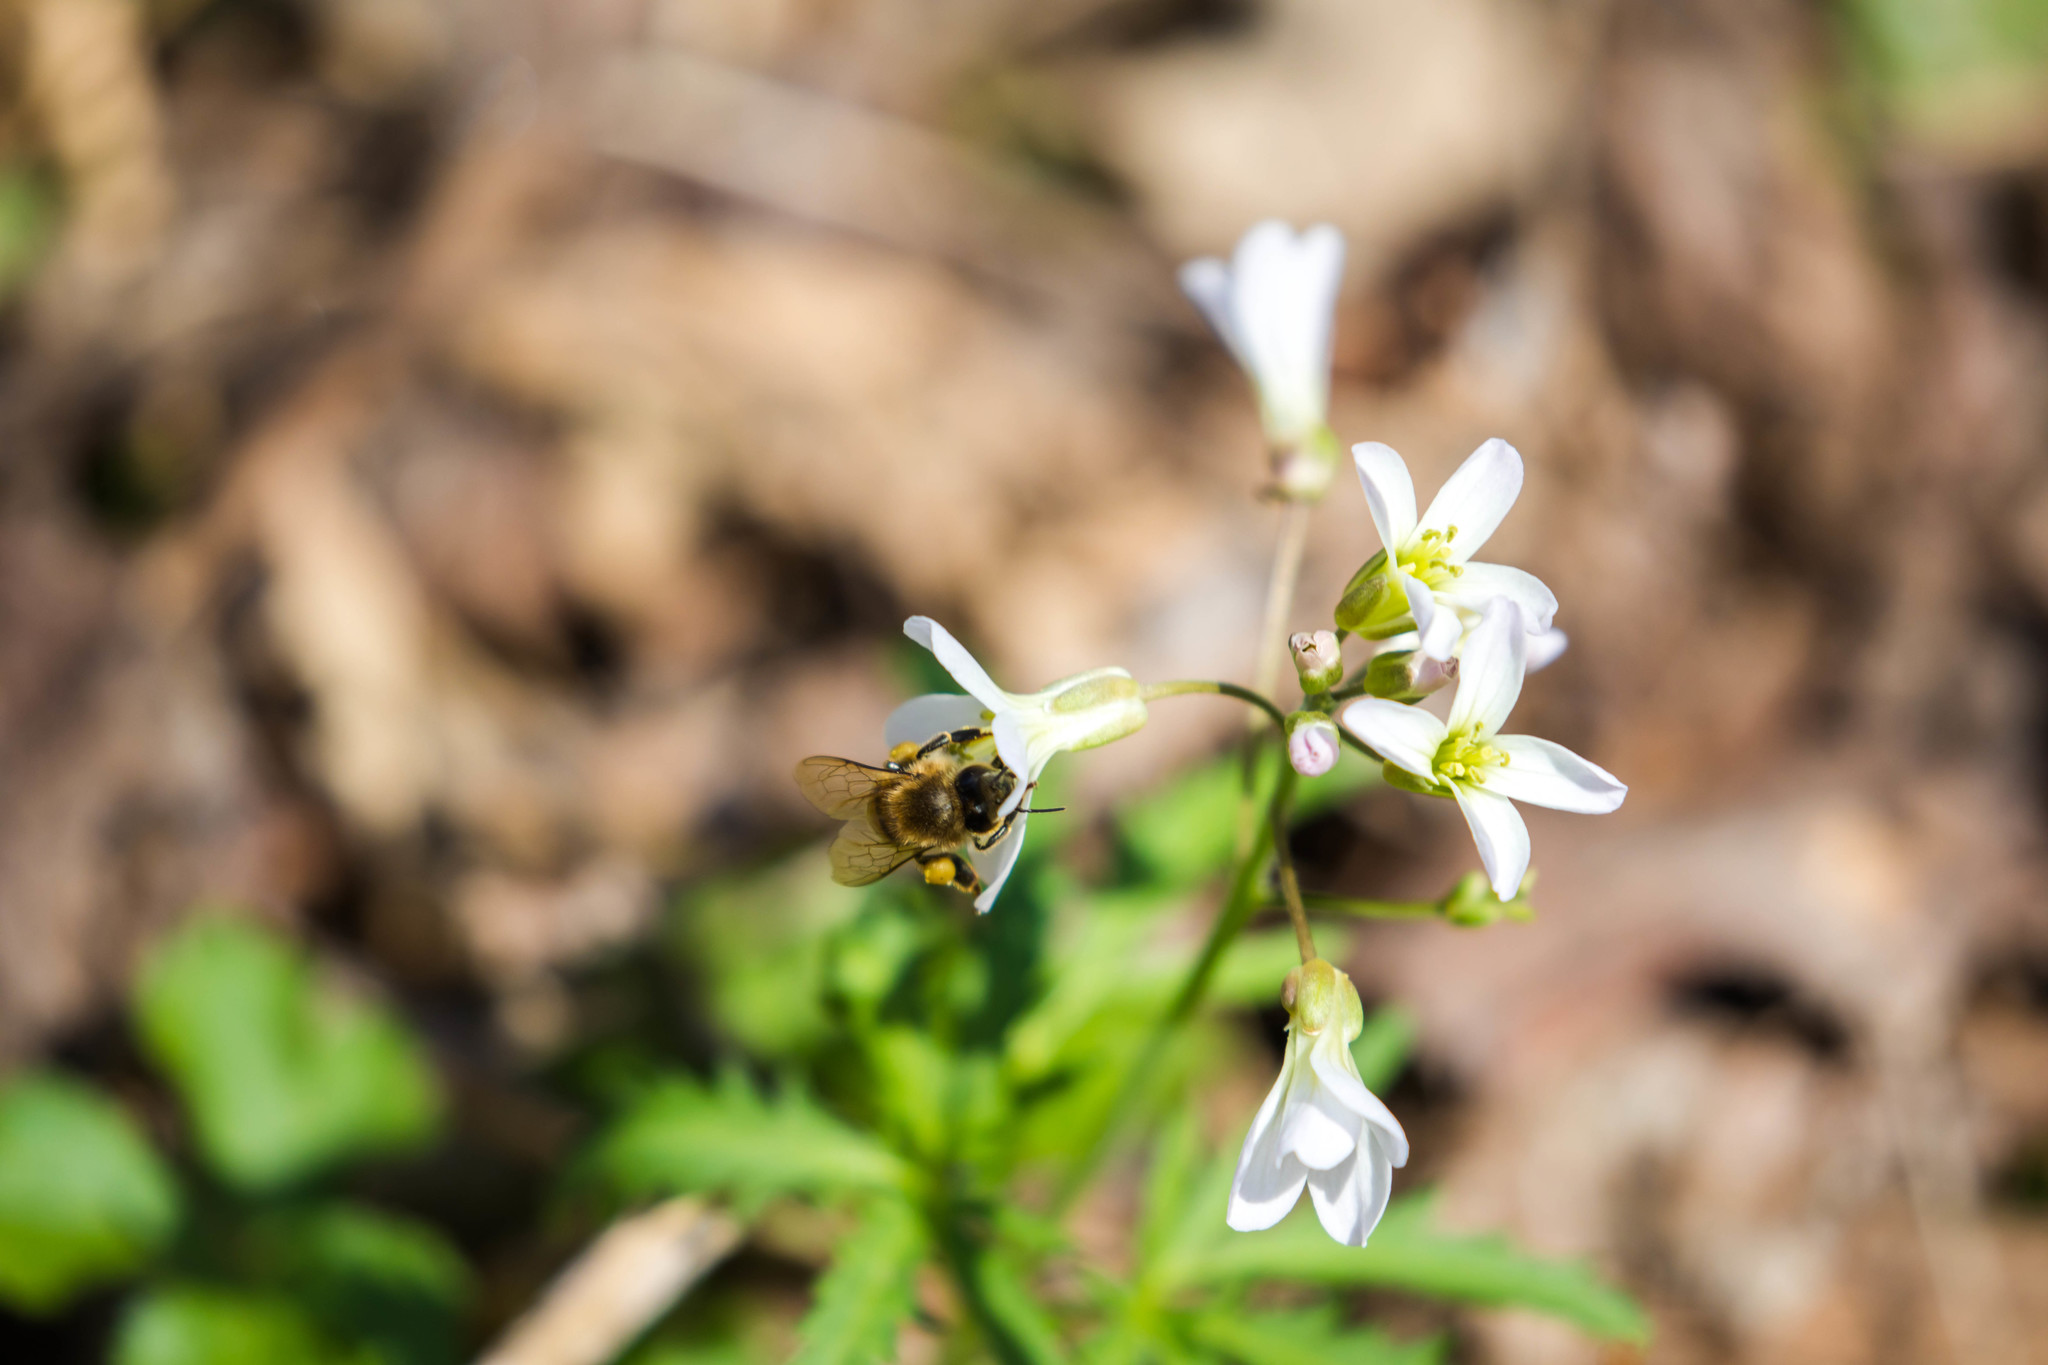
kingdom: Animalia
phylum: Arthropoda
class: Insecta
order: Hymenoptera
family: Apidae
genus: Apis
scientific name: Apis mellifera
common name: Honey bee
